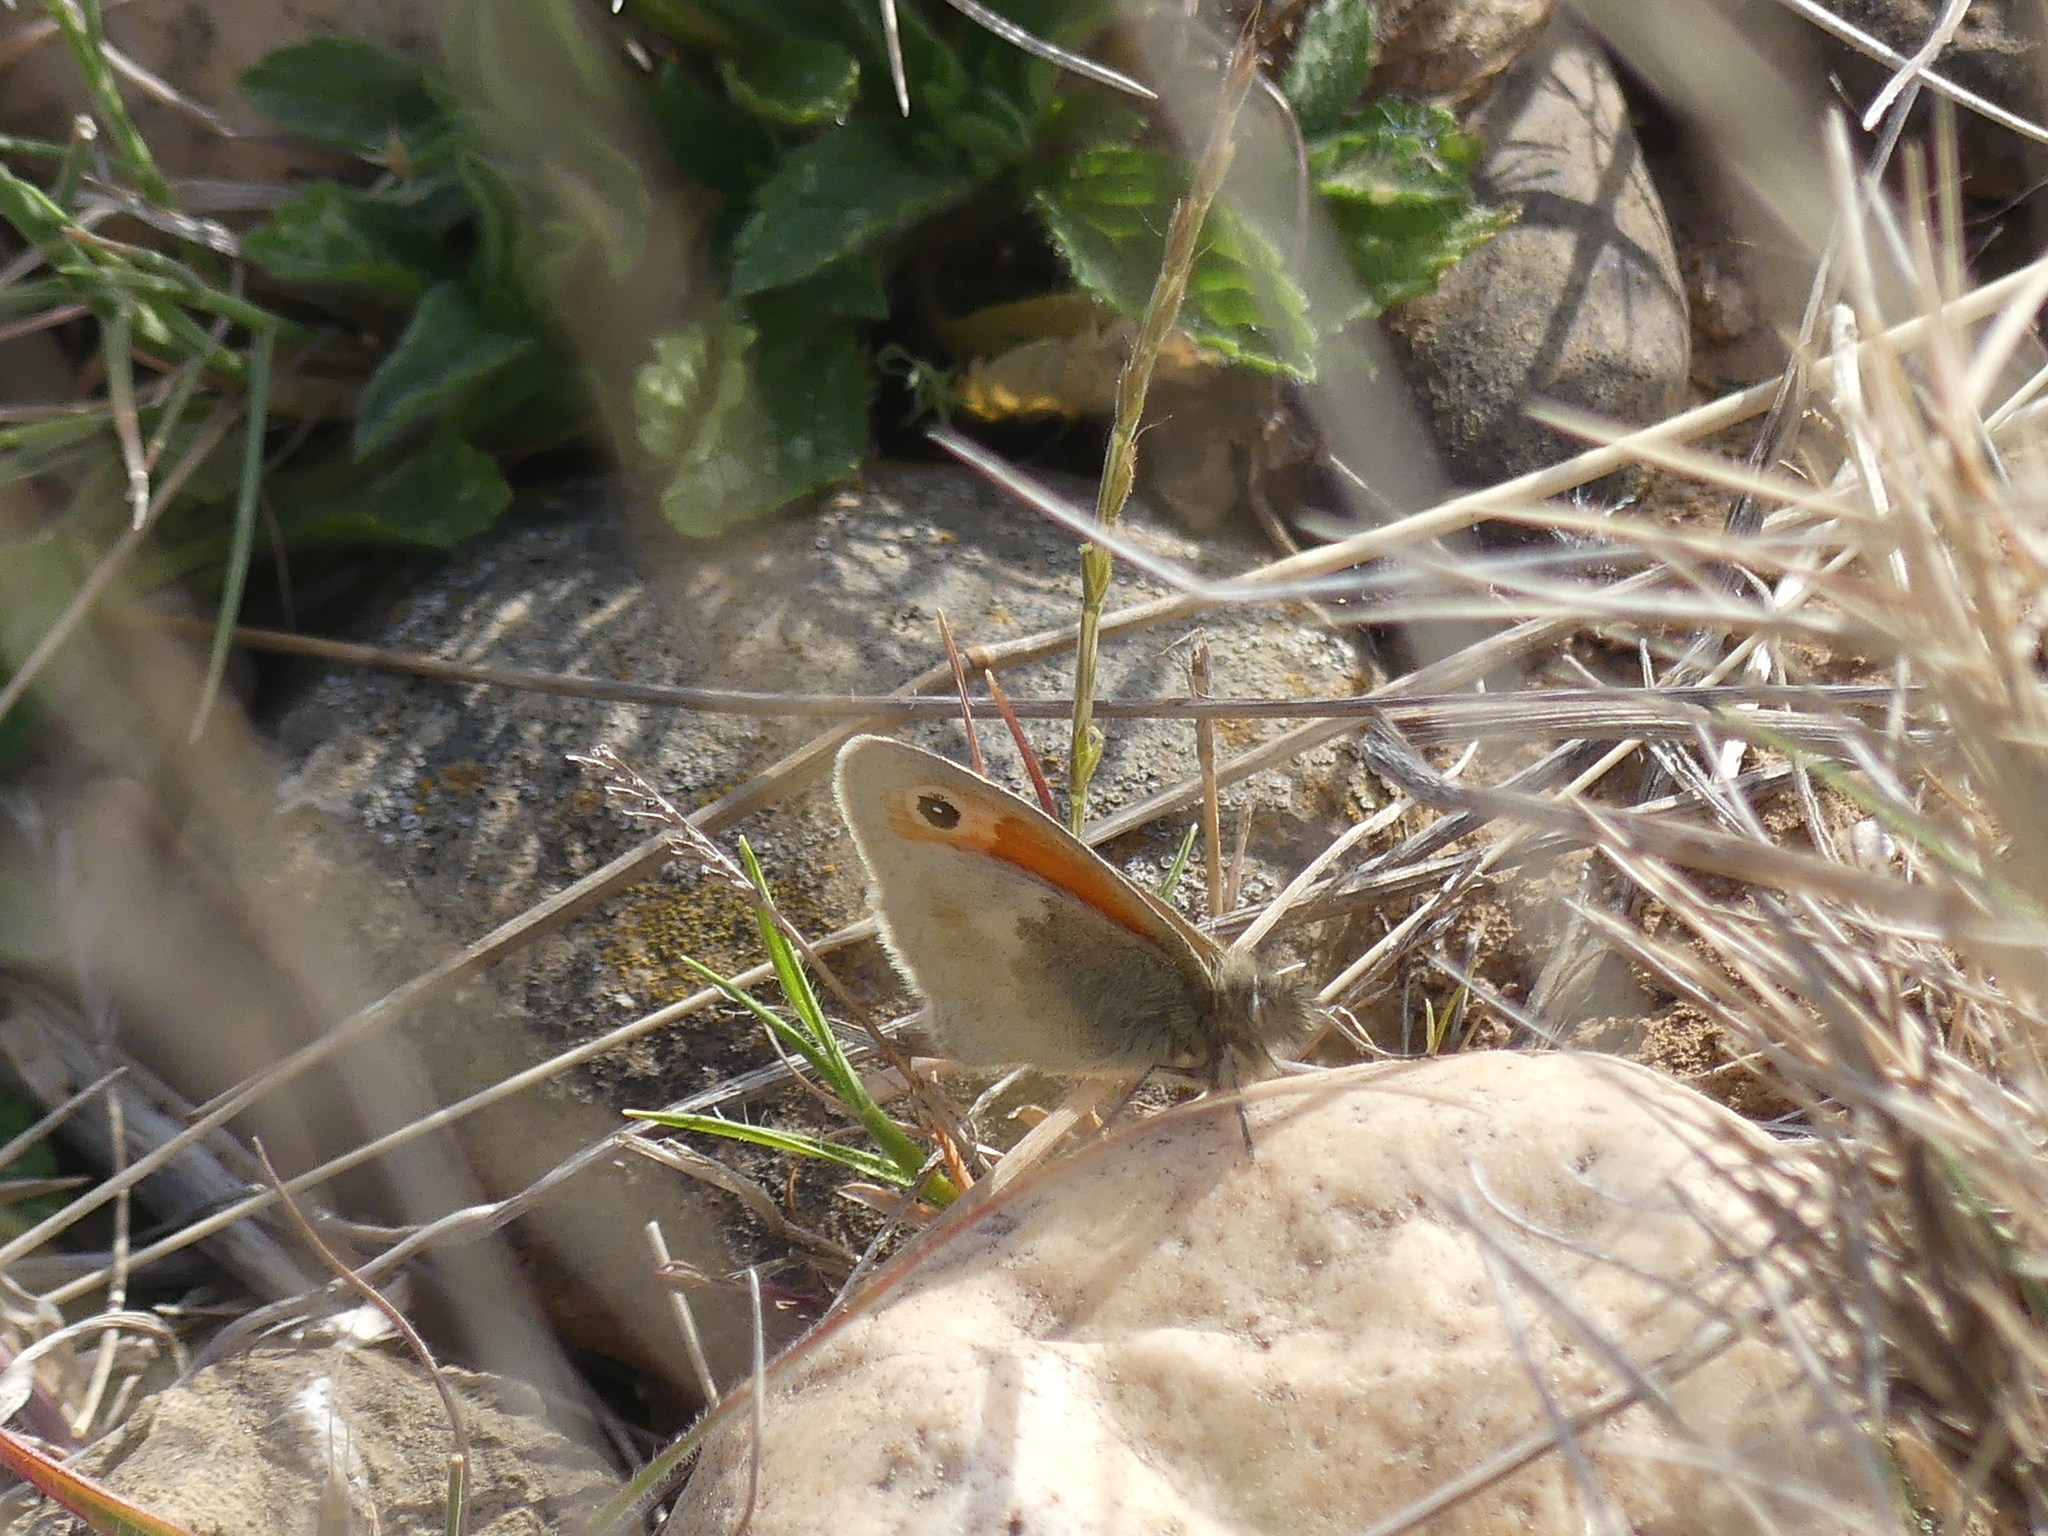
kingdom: Animalia
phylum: Arthropoda
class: Insecta
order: Lepidoptera
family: Nymphalidae
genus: Coenonympha
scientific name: Coenonympha pamphilus
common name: Small heath
